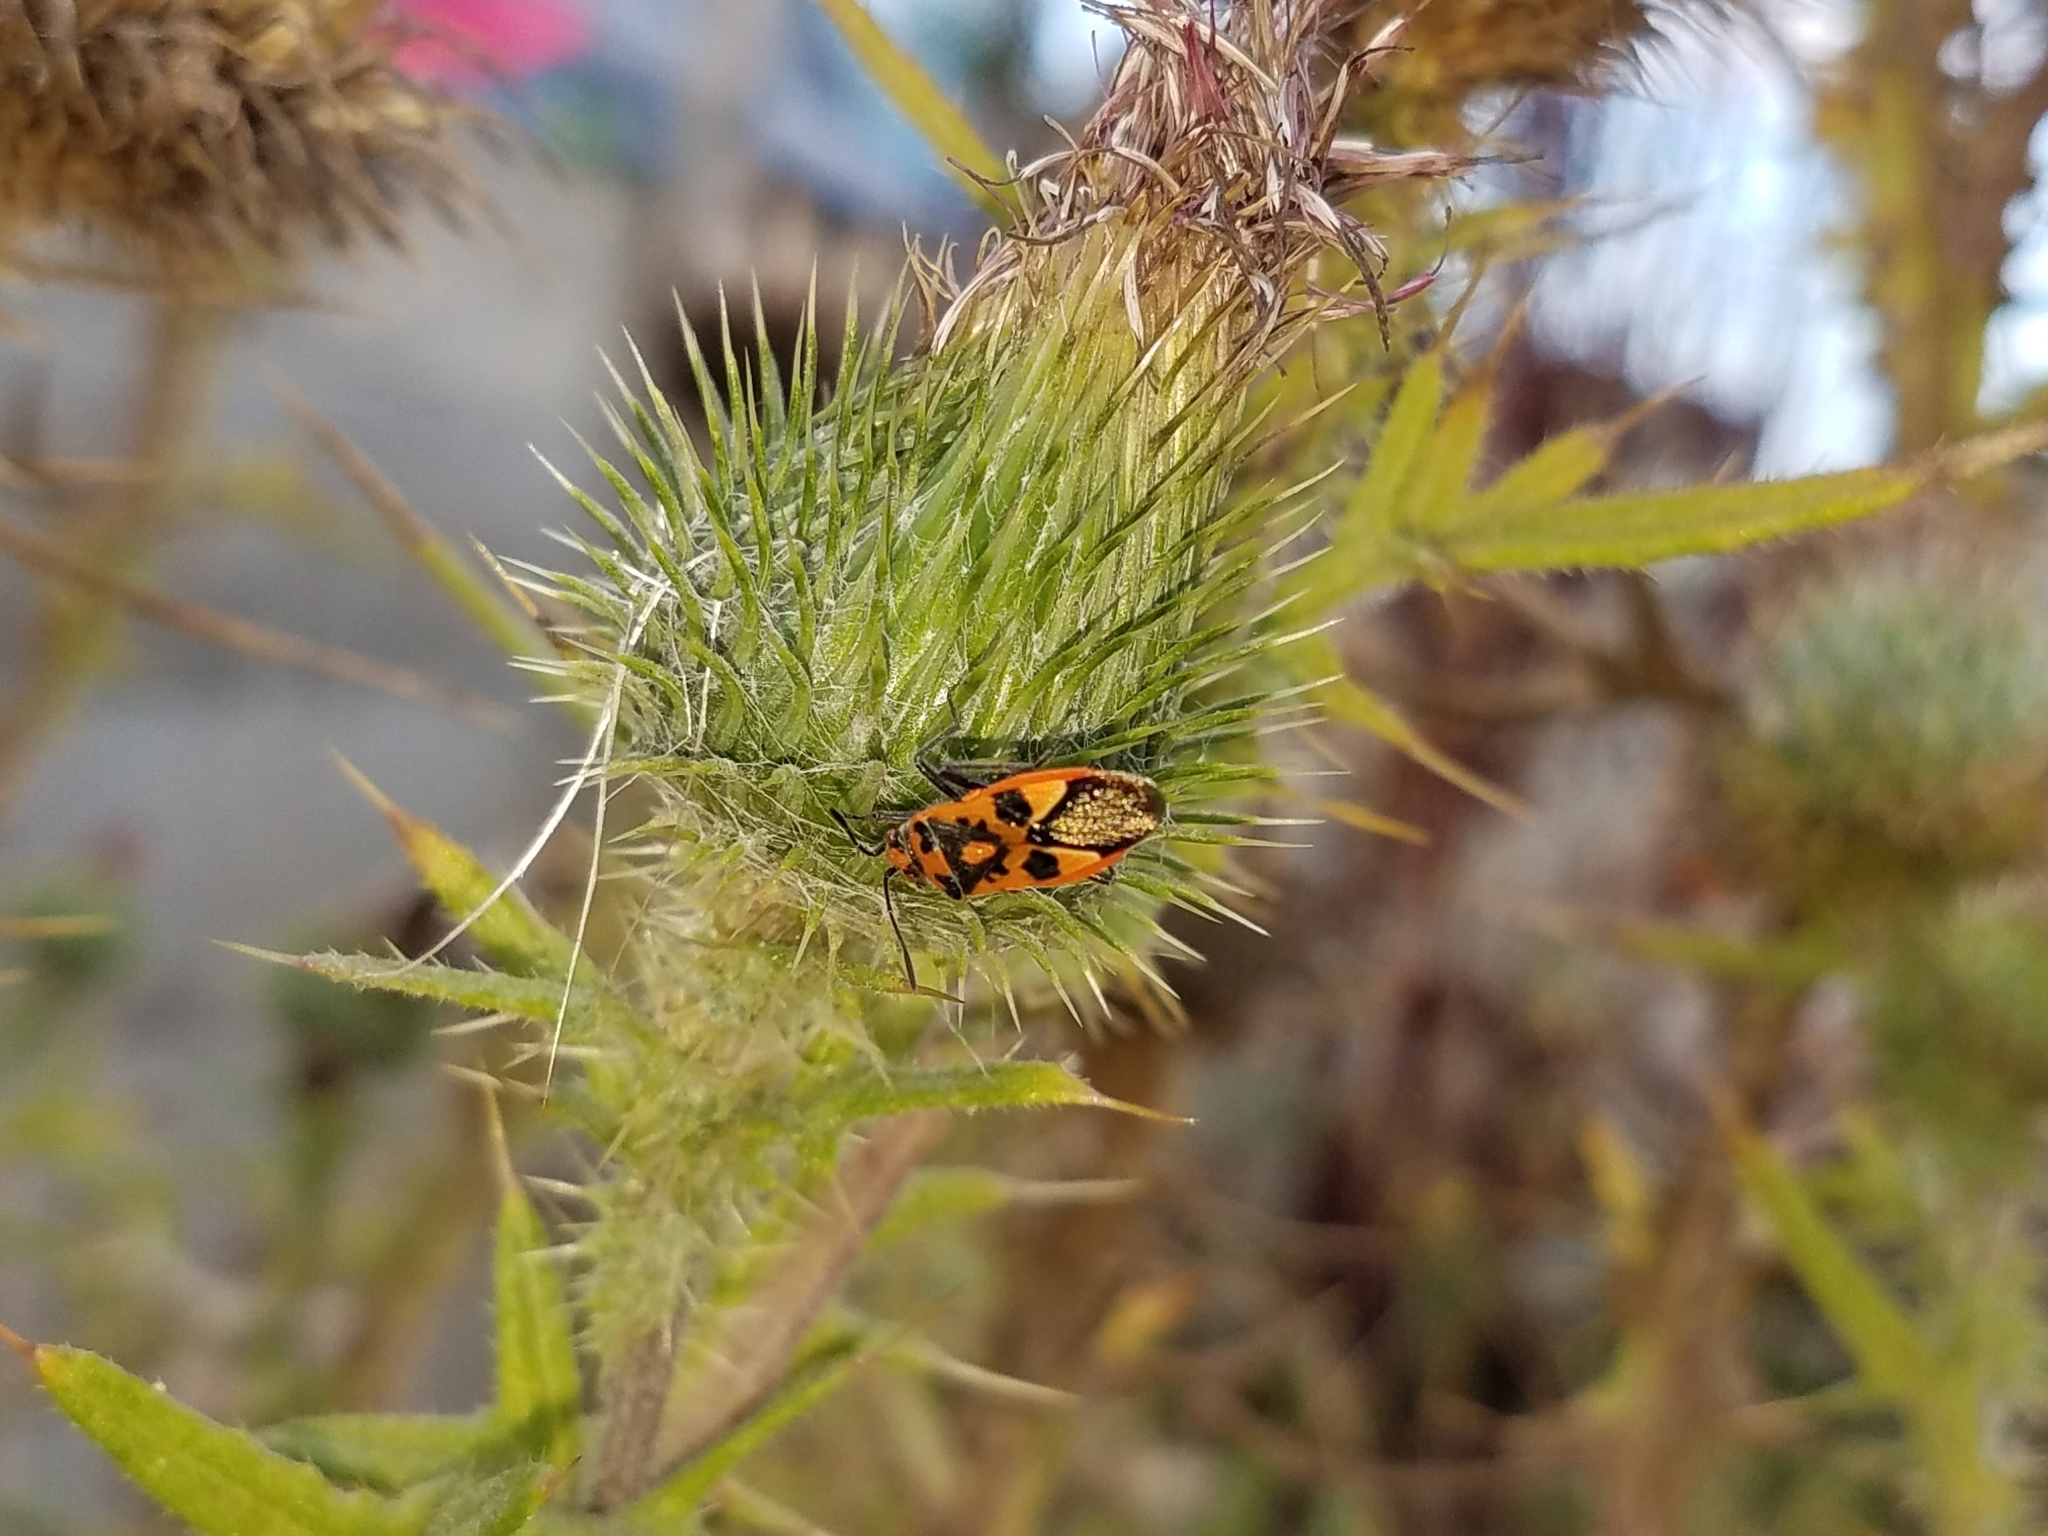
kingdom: Animalia
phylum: Arthropoda
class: Insecta
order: Hemiptera
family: Rhopalidae
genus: Corizus
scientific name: Corizus hyoscyami
